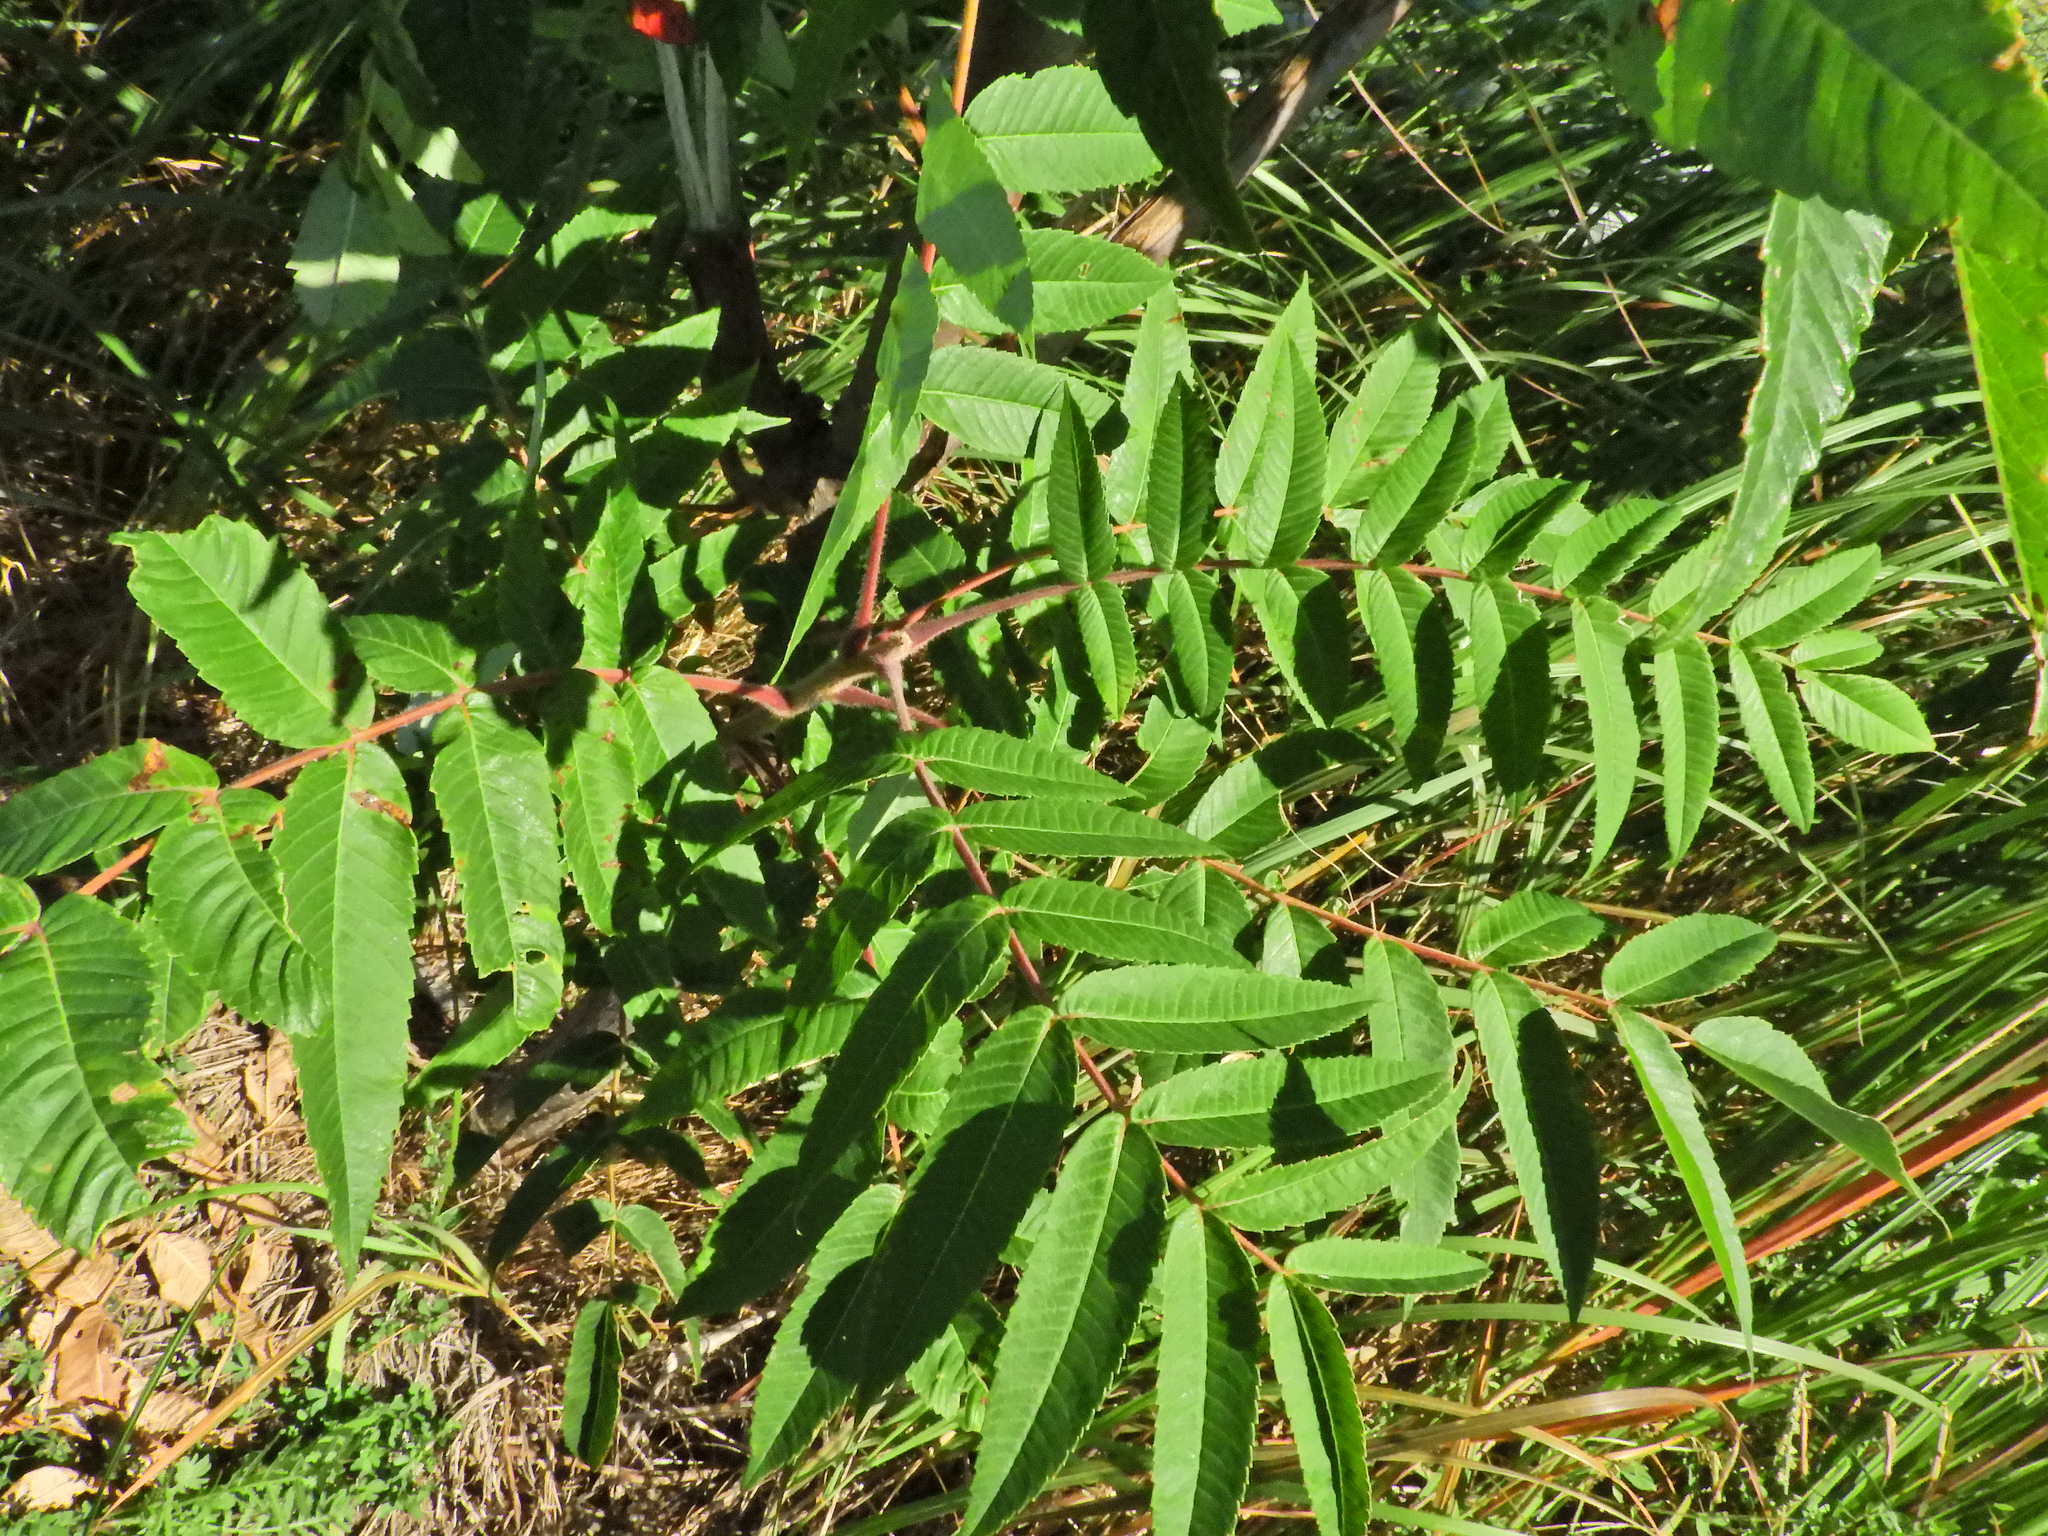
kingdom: Plantae
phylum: Tracheophyta
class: Magnoliopsida
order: Sapindales
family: Anacardiaceae
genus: Rhus
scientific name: Rhus typhina
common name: Staghorn sumac
